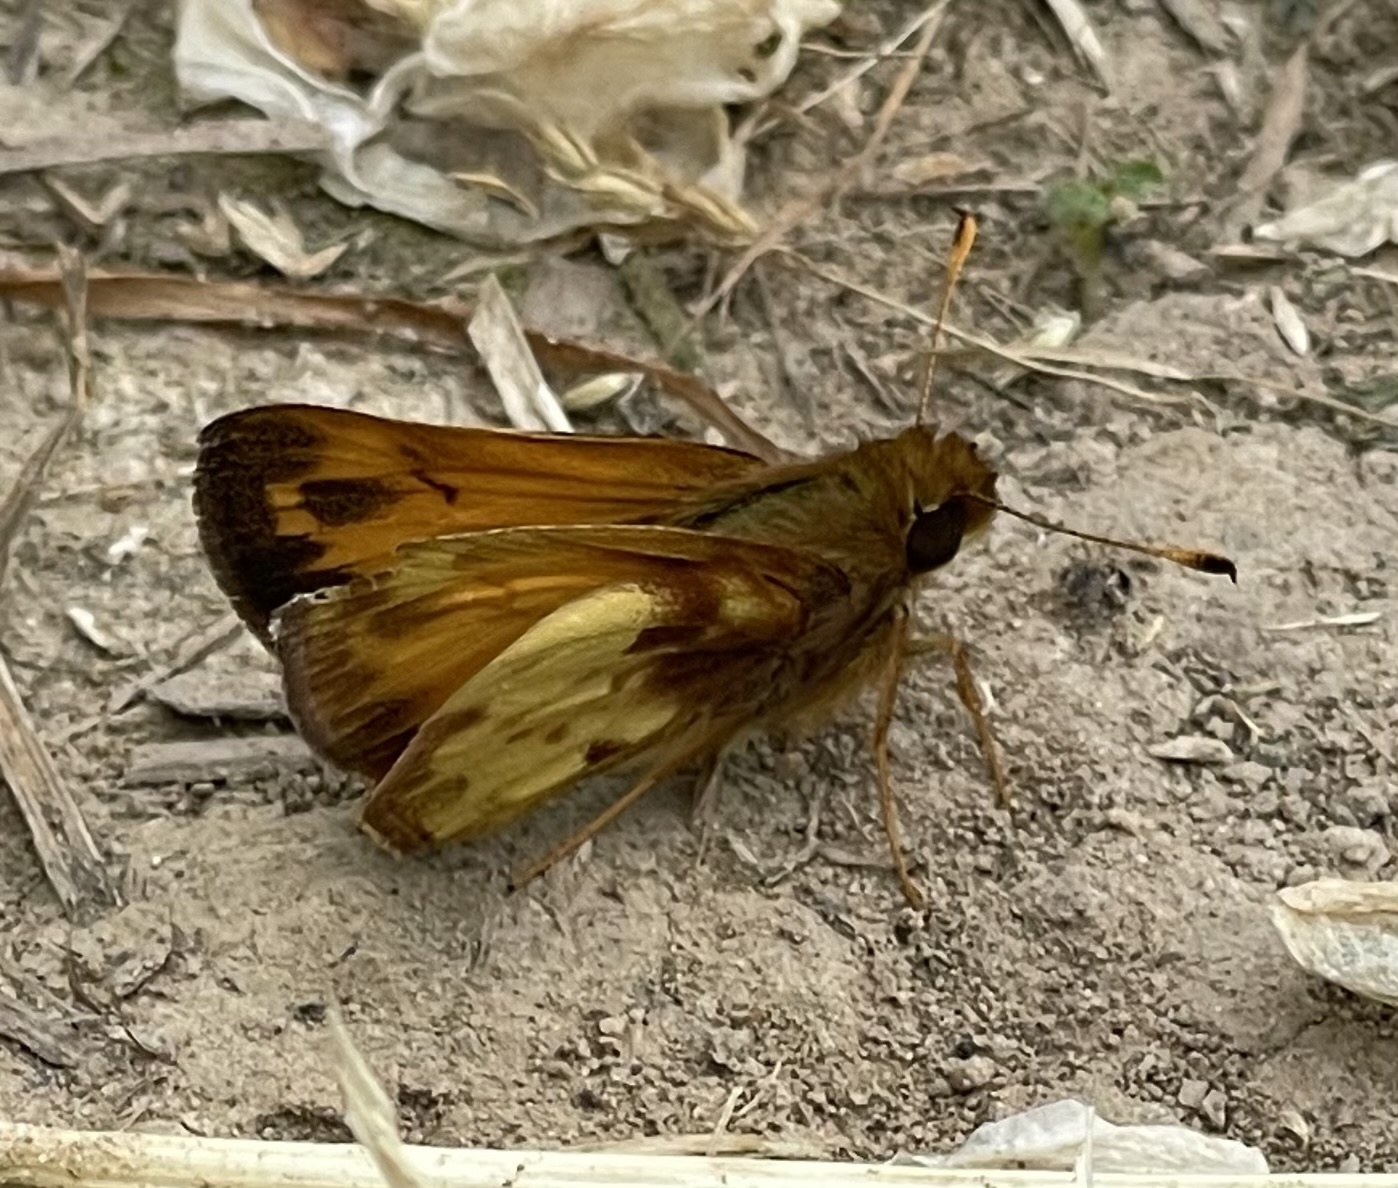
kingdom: Animalia
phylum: Arthropoda
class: Insecta
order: Lepidoptera
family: Hesperiidae
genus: Lon
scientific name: Lon zabulon
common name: Zabulon skipper
